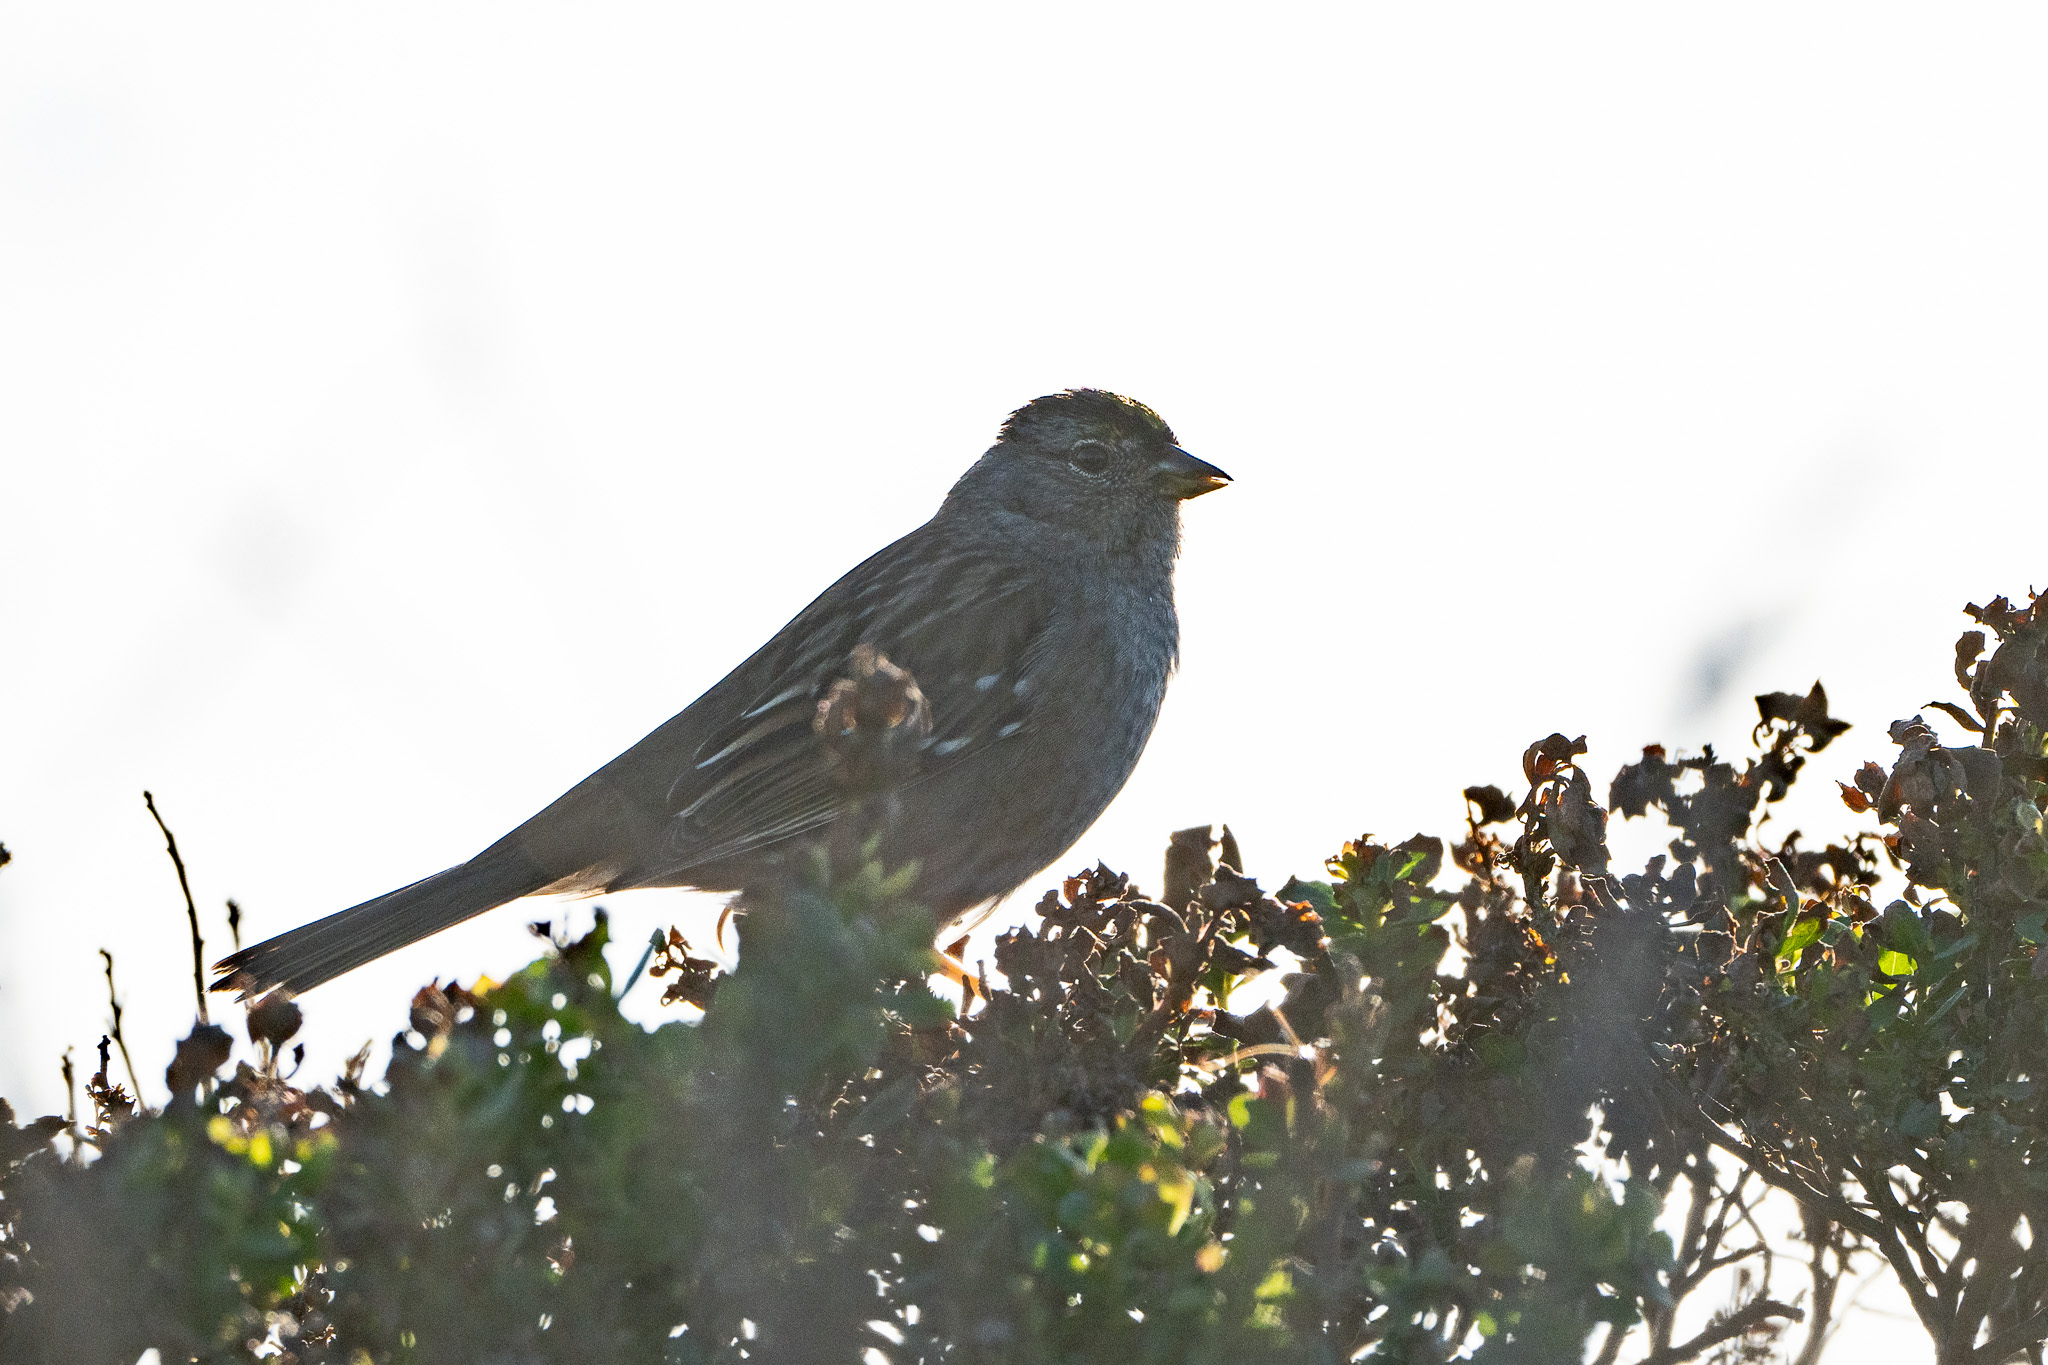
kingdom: Animalia
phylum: Chordata
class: Aves
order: Passeriformes
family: Passerellidae
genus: Zonotrichia
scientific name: Zonotrichia atricapilla
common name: Golden-crowned sparrow
